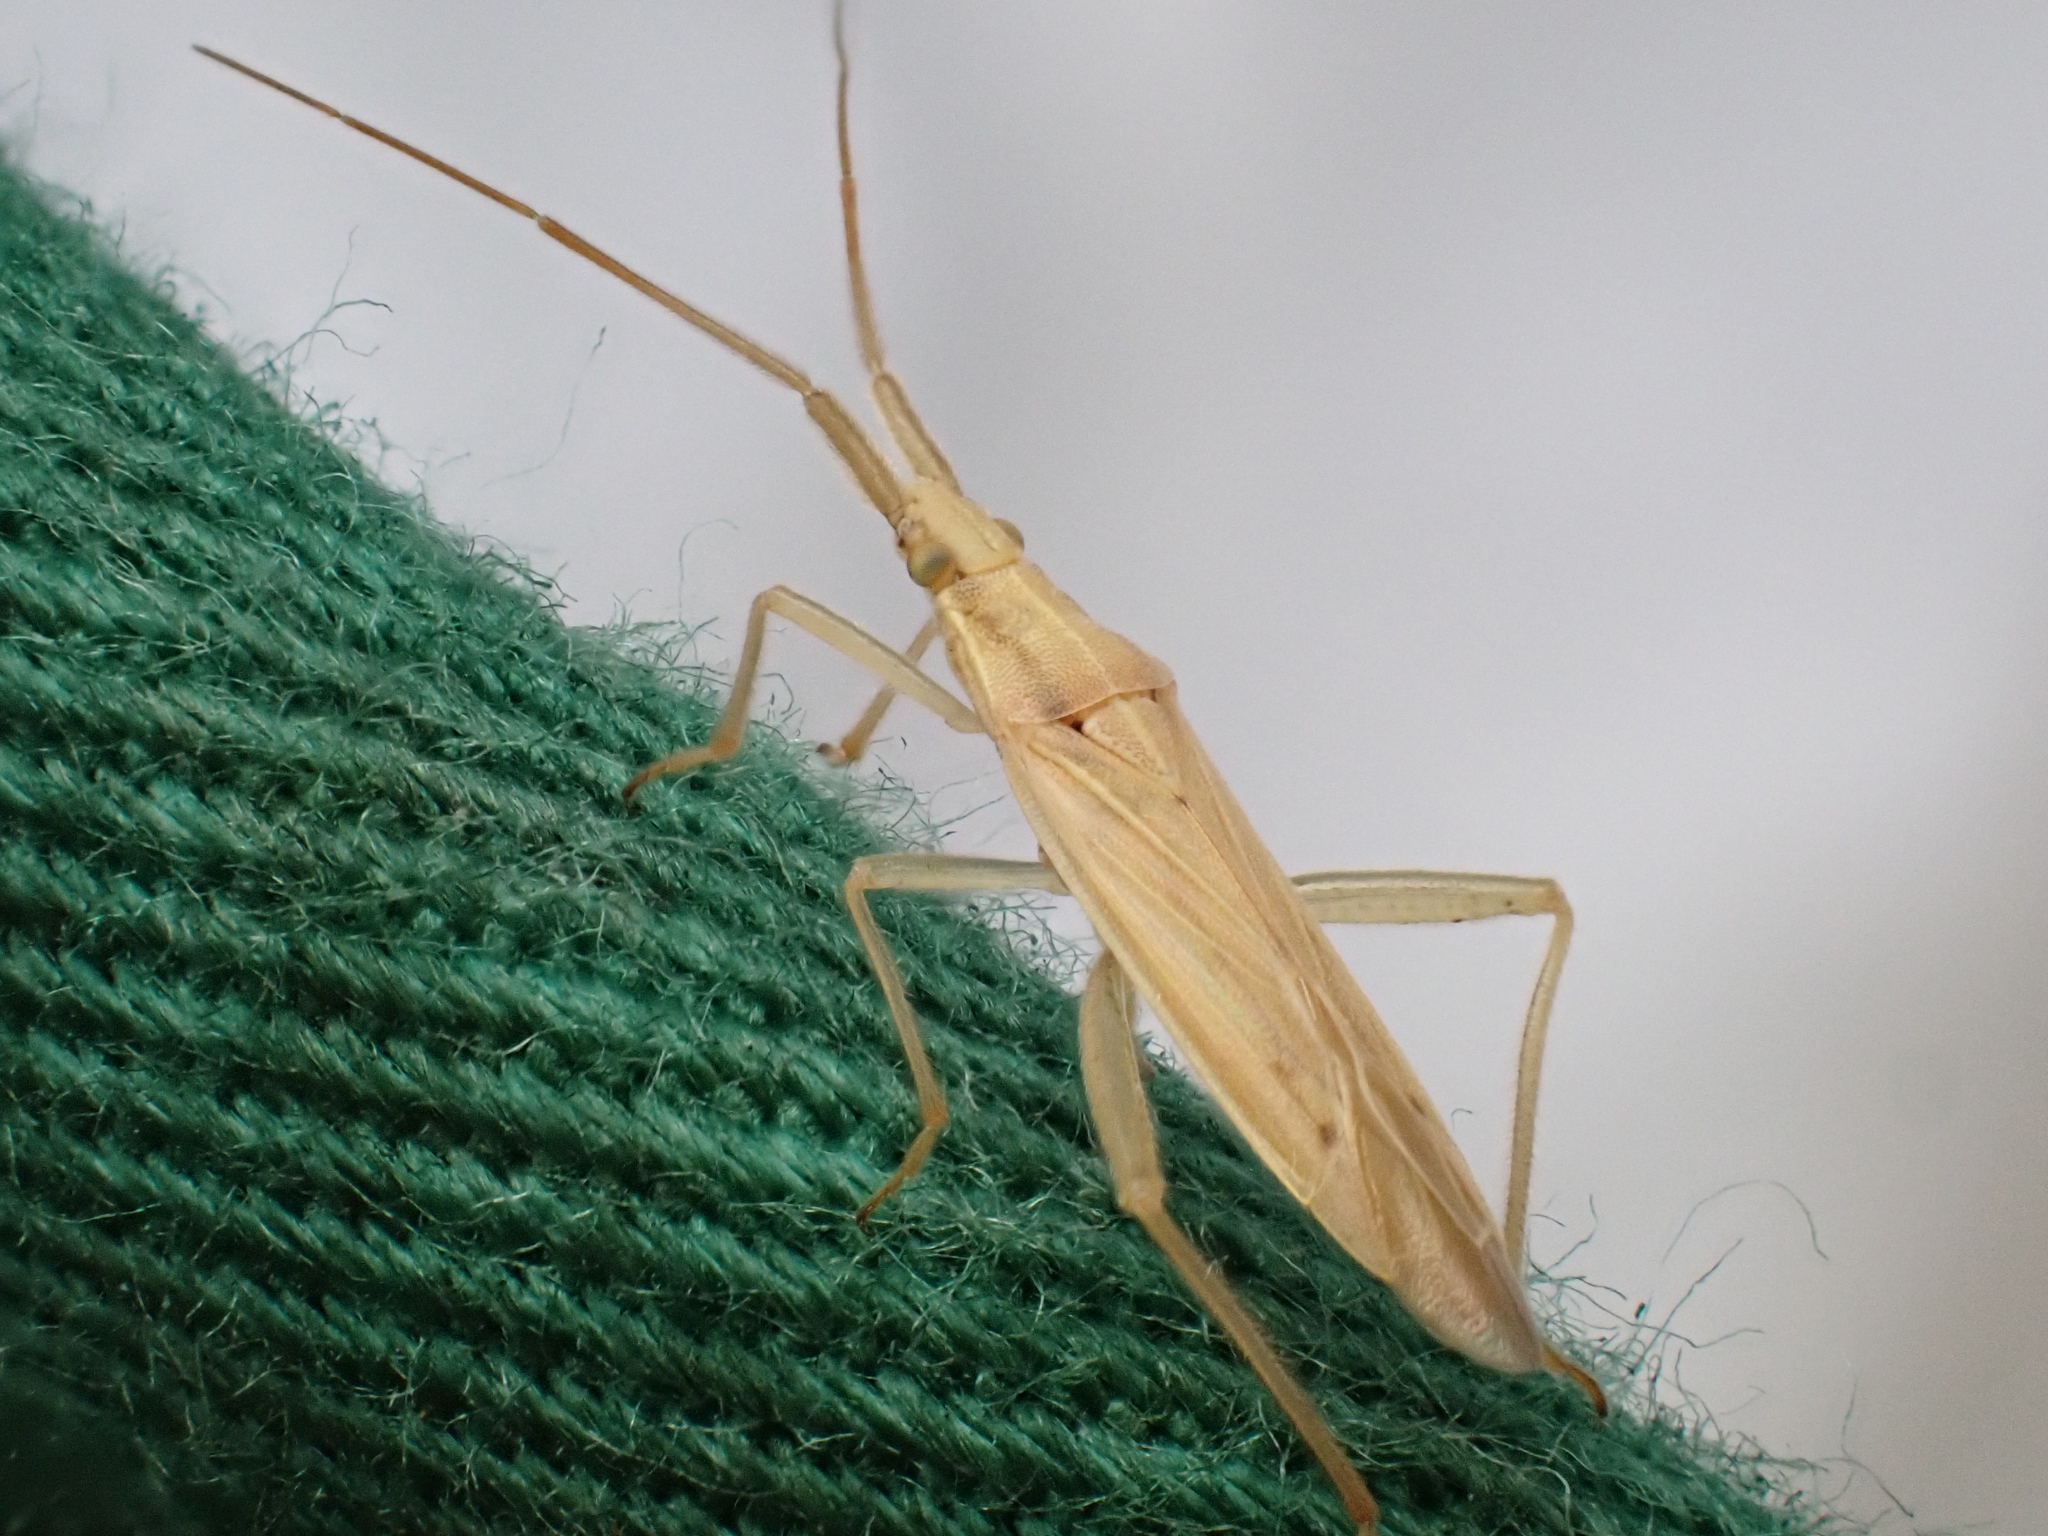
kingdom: Animalia
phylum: Arthropoda
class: Insecta
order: Hemiptera
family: Miridae
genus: Stenodema
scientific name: Stenodema laevigata
